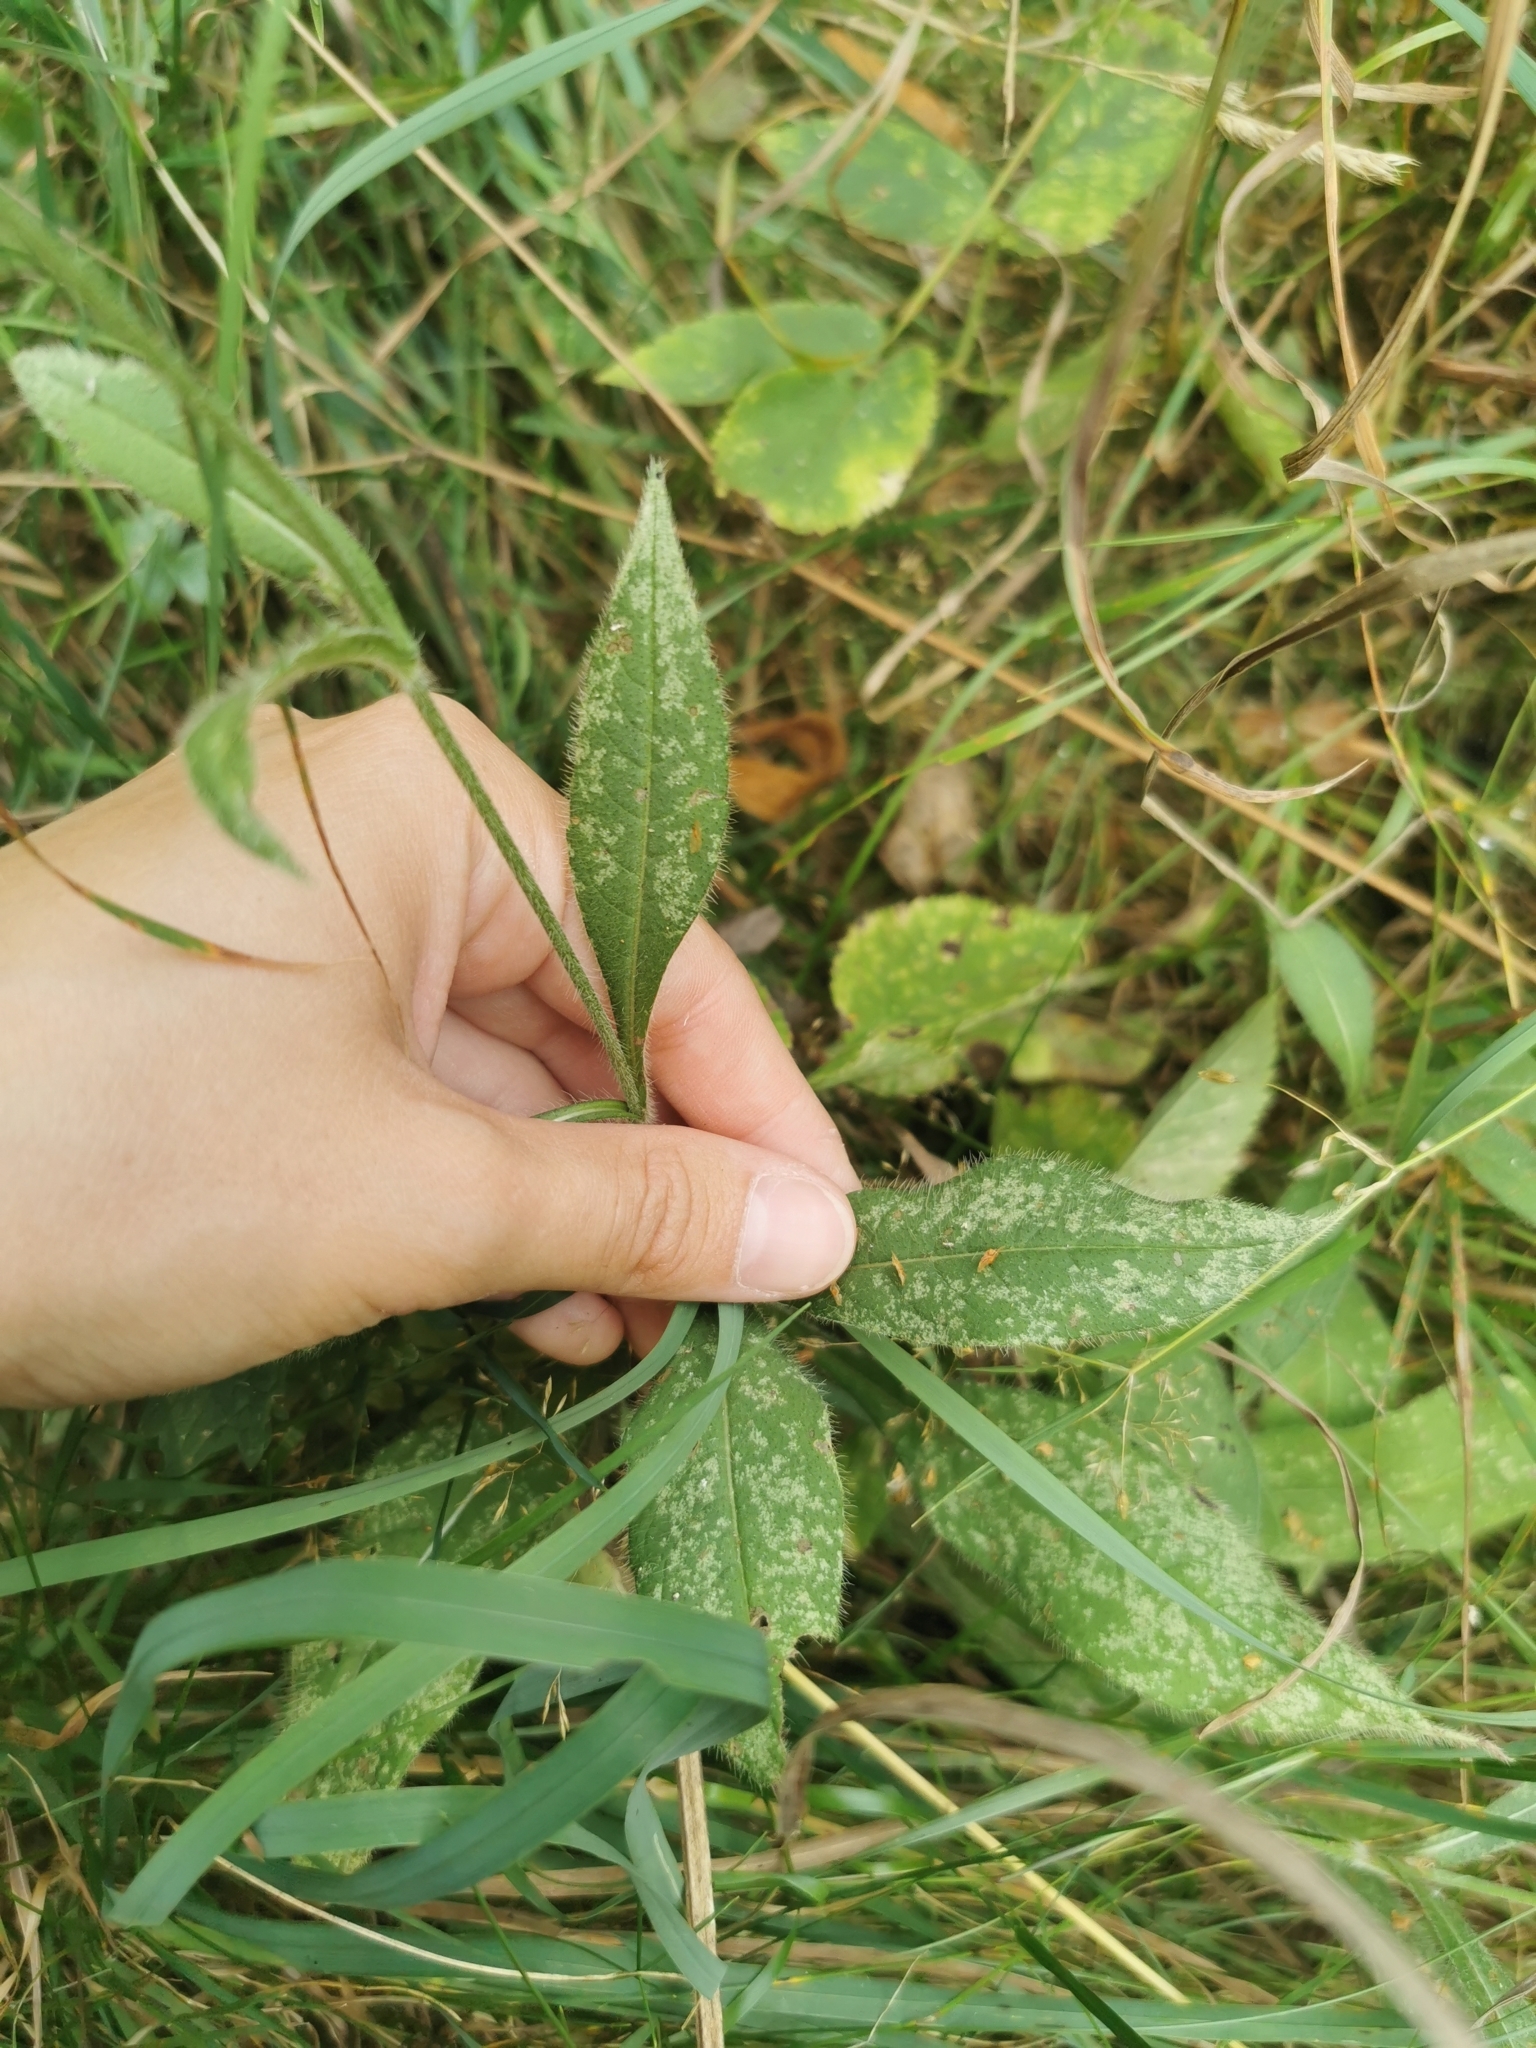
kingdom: Plantae
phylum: Tracheophyta
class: Magnoliopsida
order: Dipsacales
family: Caprifoliaceae
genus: Knautia
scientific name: Knautia arvensis
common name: Field scabiosa
